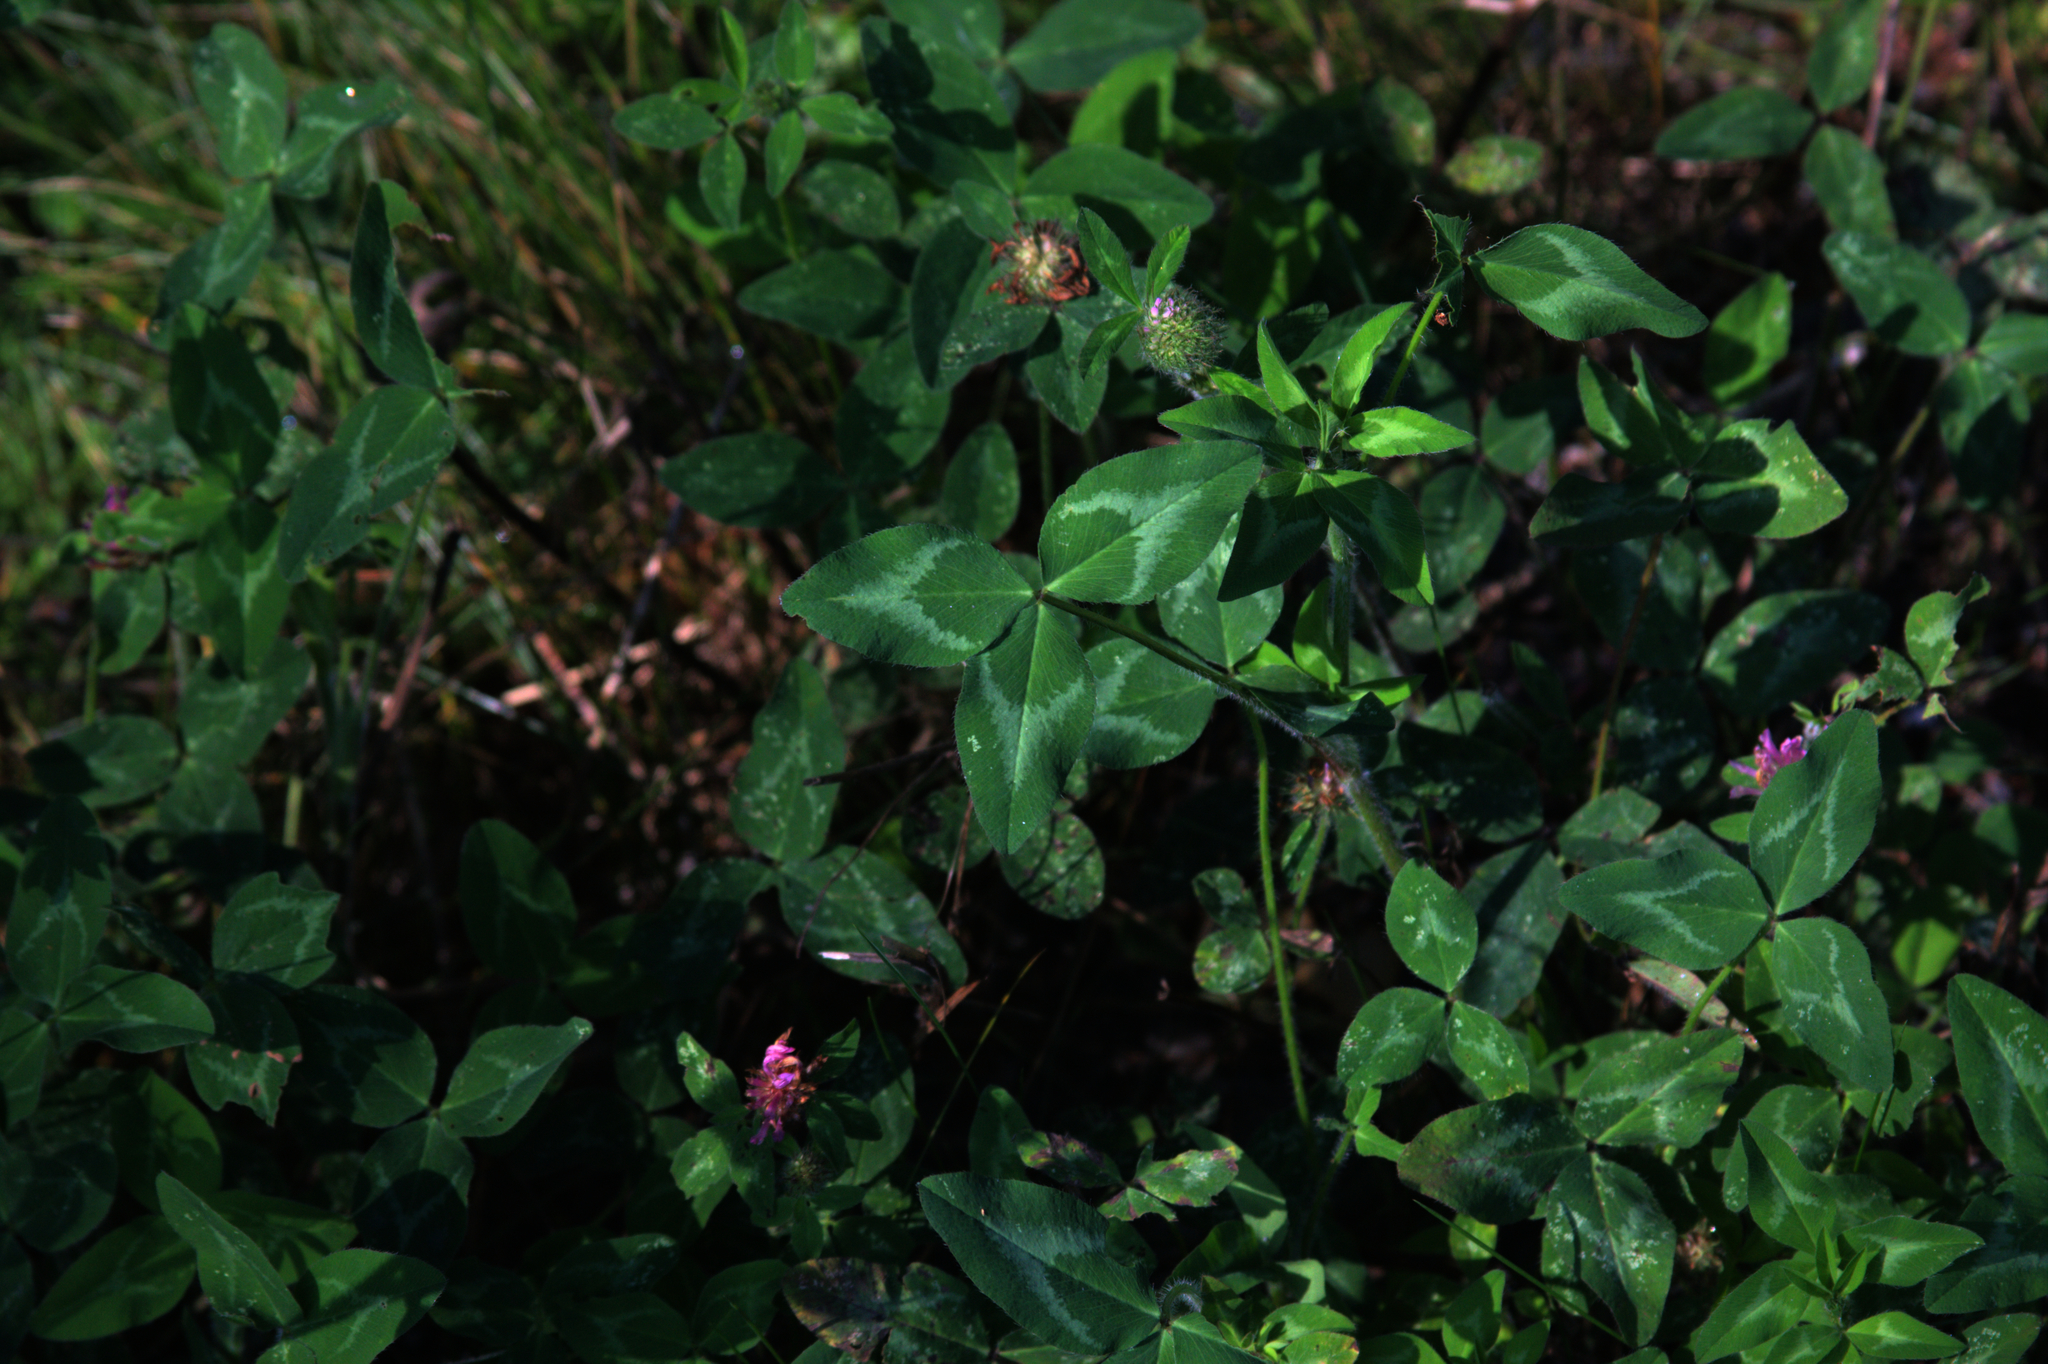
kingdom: Plantae
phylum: Tracheophyta
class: Magnoliopsida
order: Fabales
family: Fabaceae
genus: Trifolium
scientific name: Trifolium pratense
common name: Red clover
